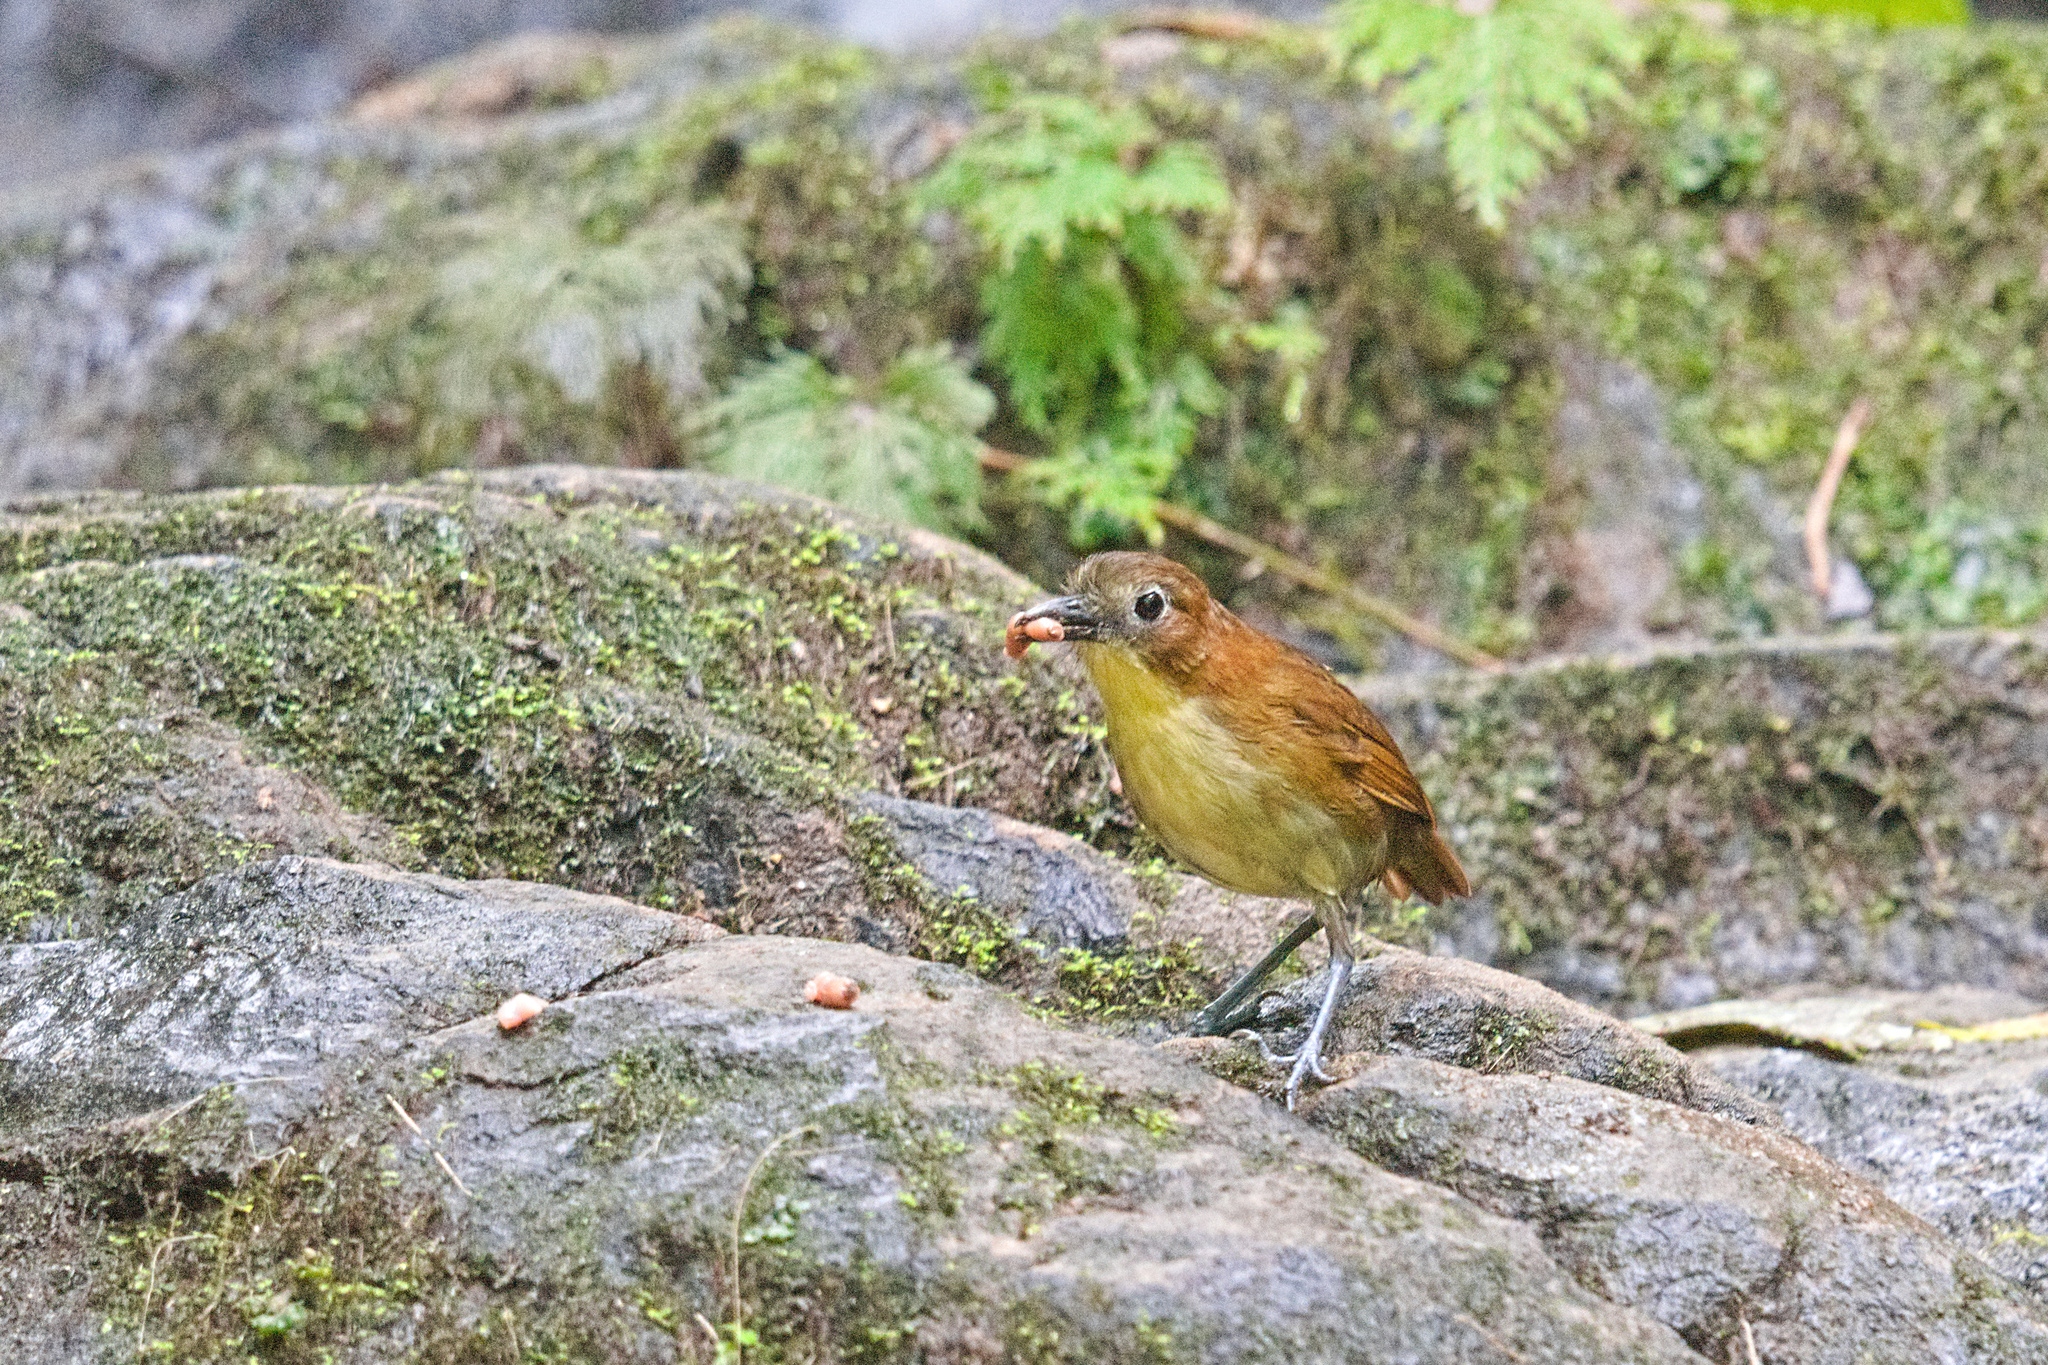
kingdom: Animalia
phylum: Chordata
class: Aves
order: Passeriformes
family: Grallariidae
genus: Grallaria
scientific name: Grallaria flavotincta
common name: Yellow-breasted antpitta
